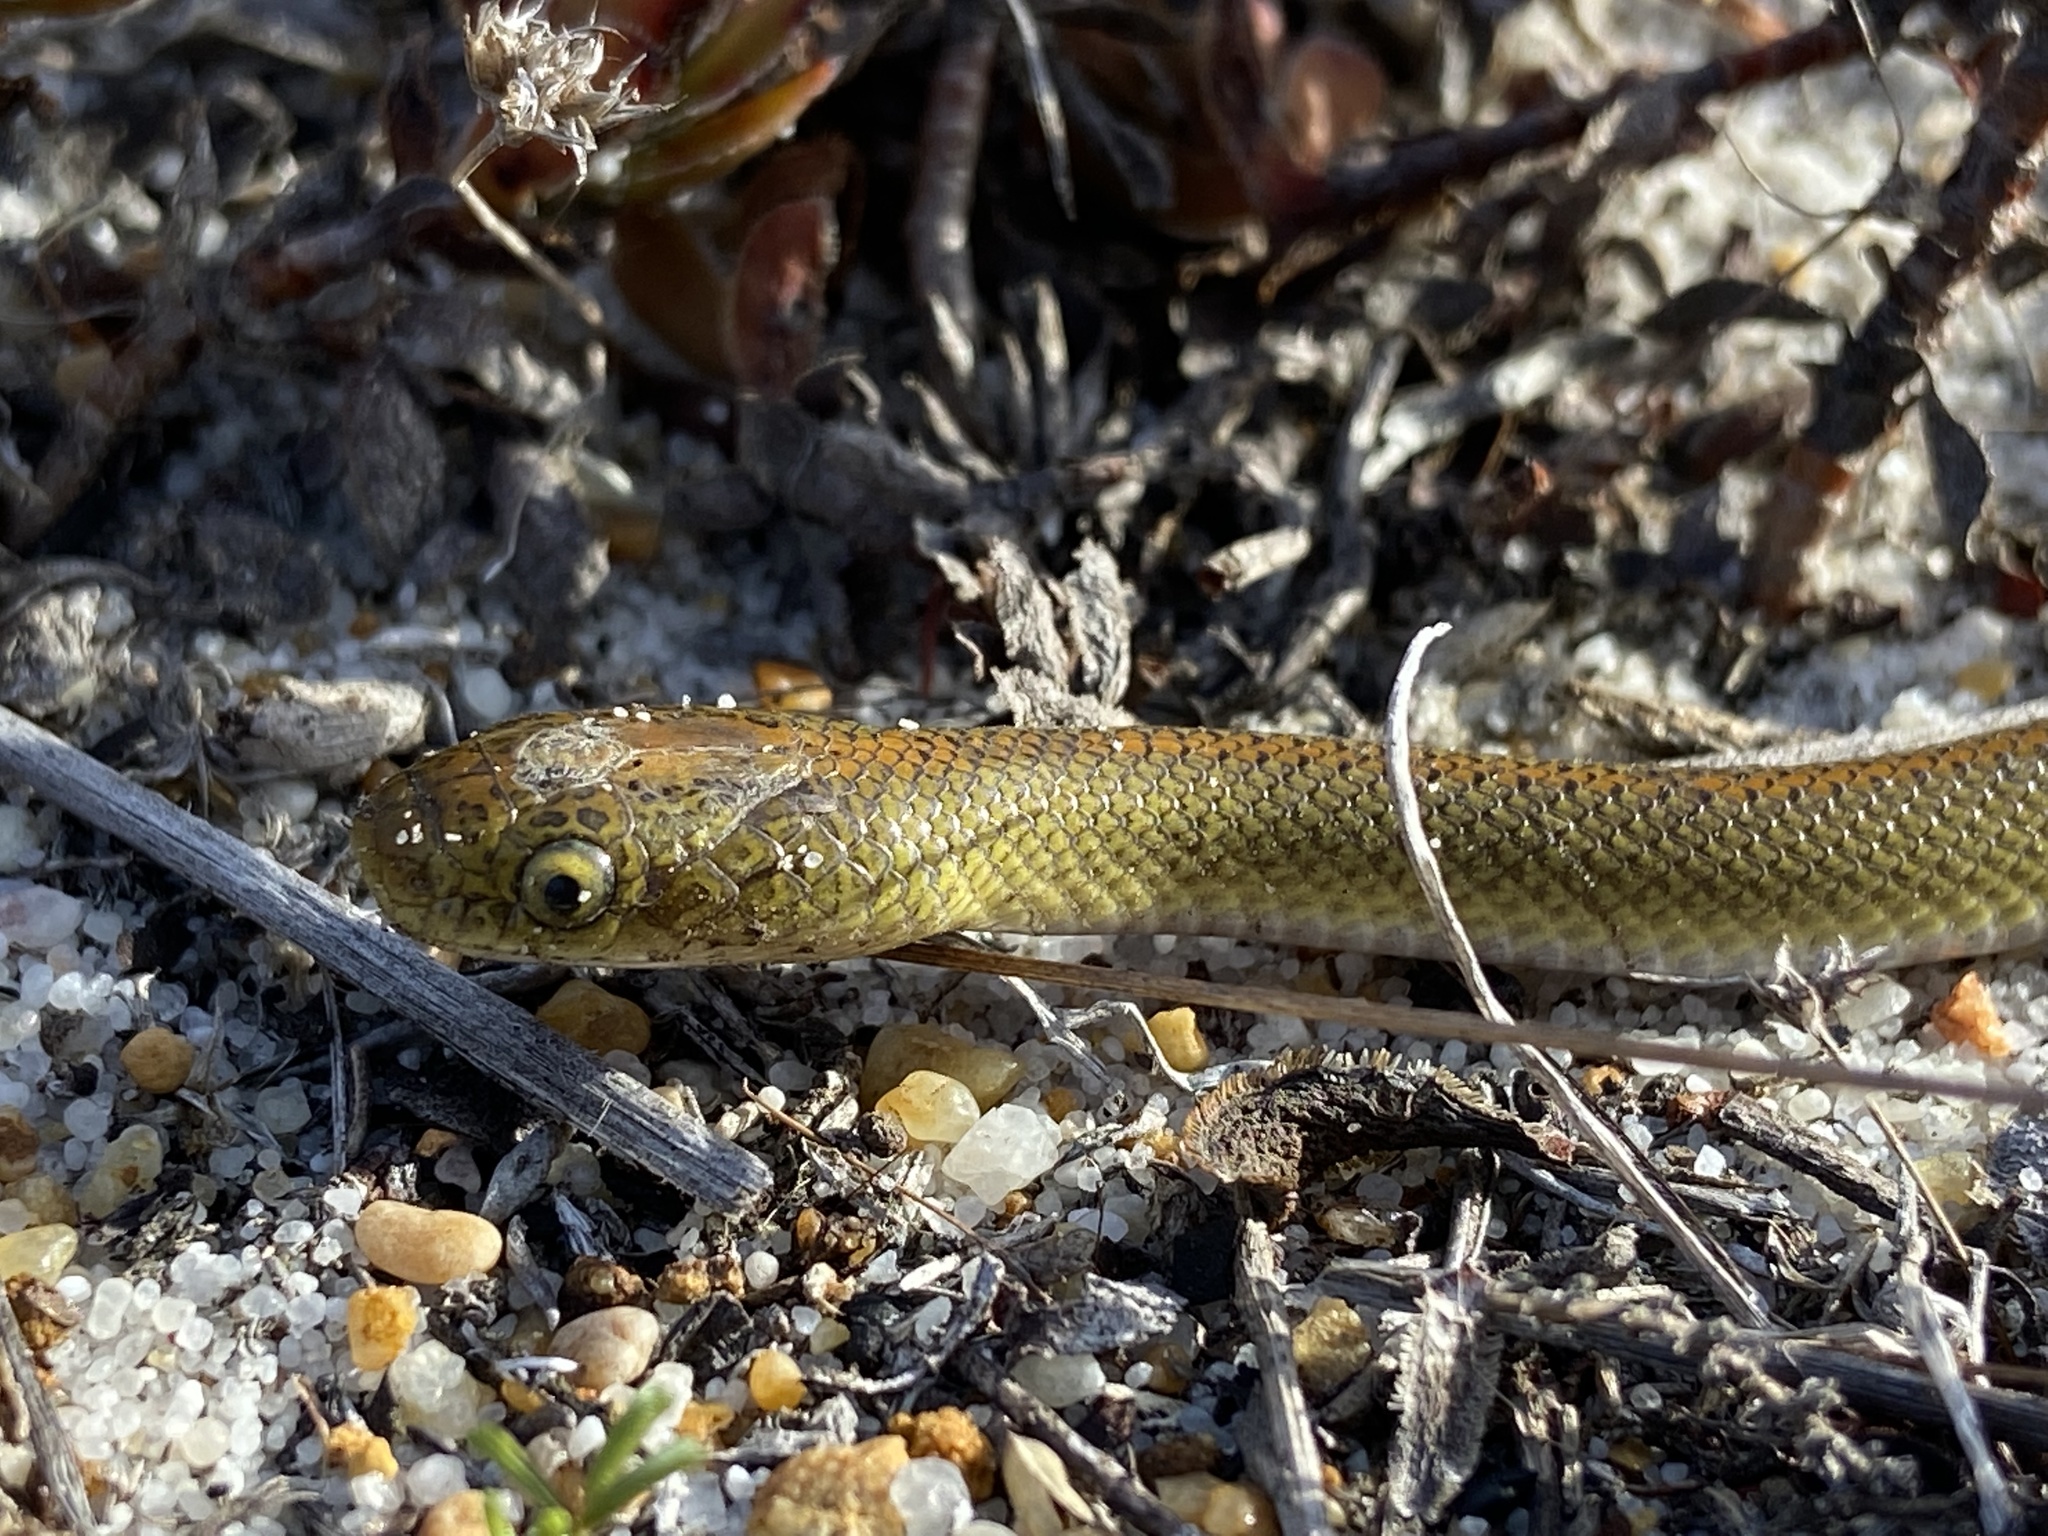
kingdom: Animalia
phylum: Chordata
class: Squamata
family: Lamprophiidae
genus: Lamprophis
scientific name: Lamprophis aurora
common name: Aurora house snake
